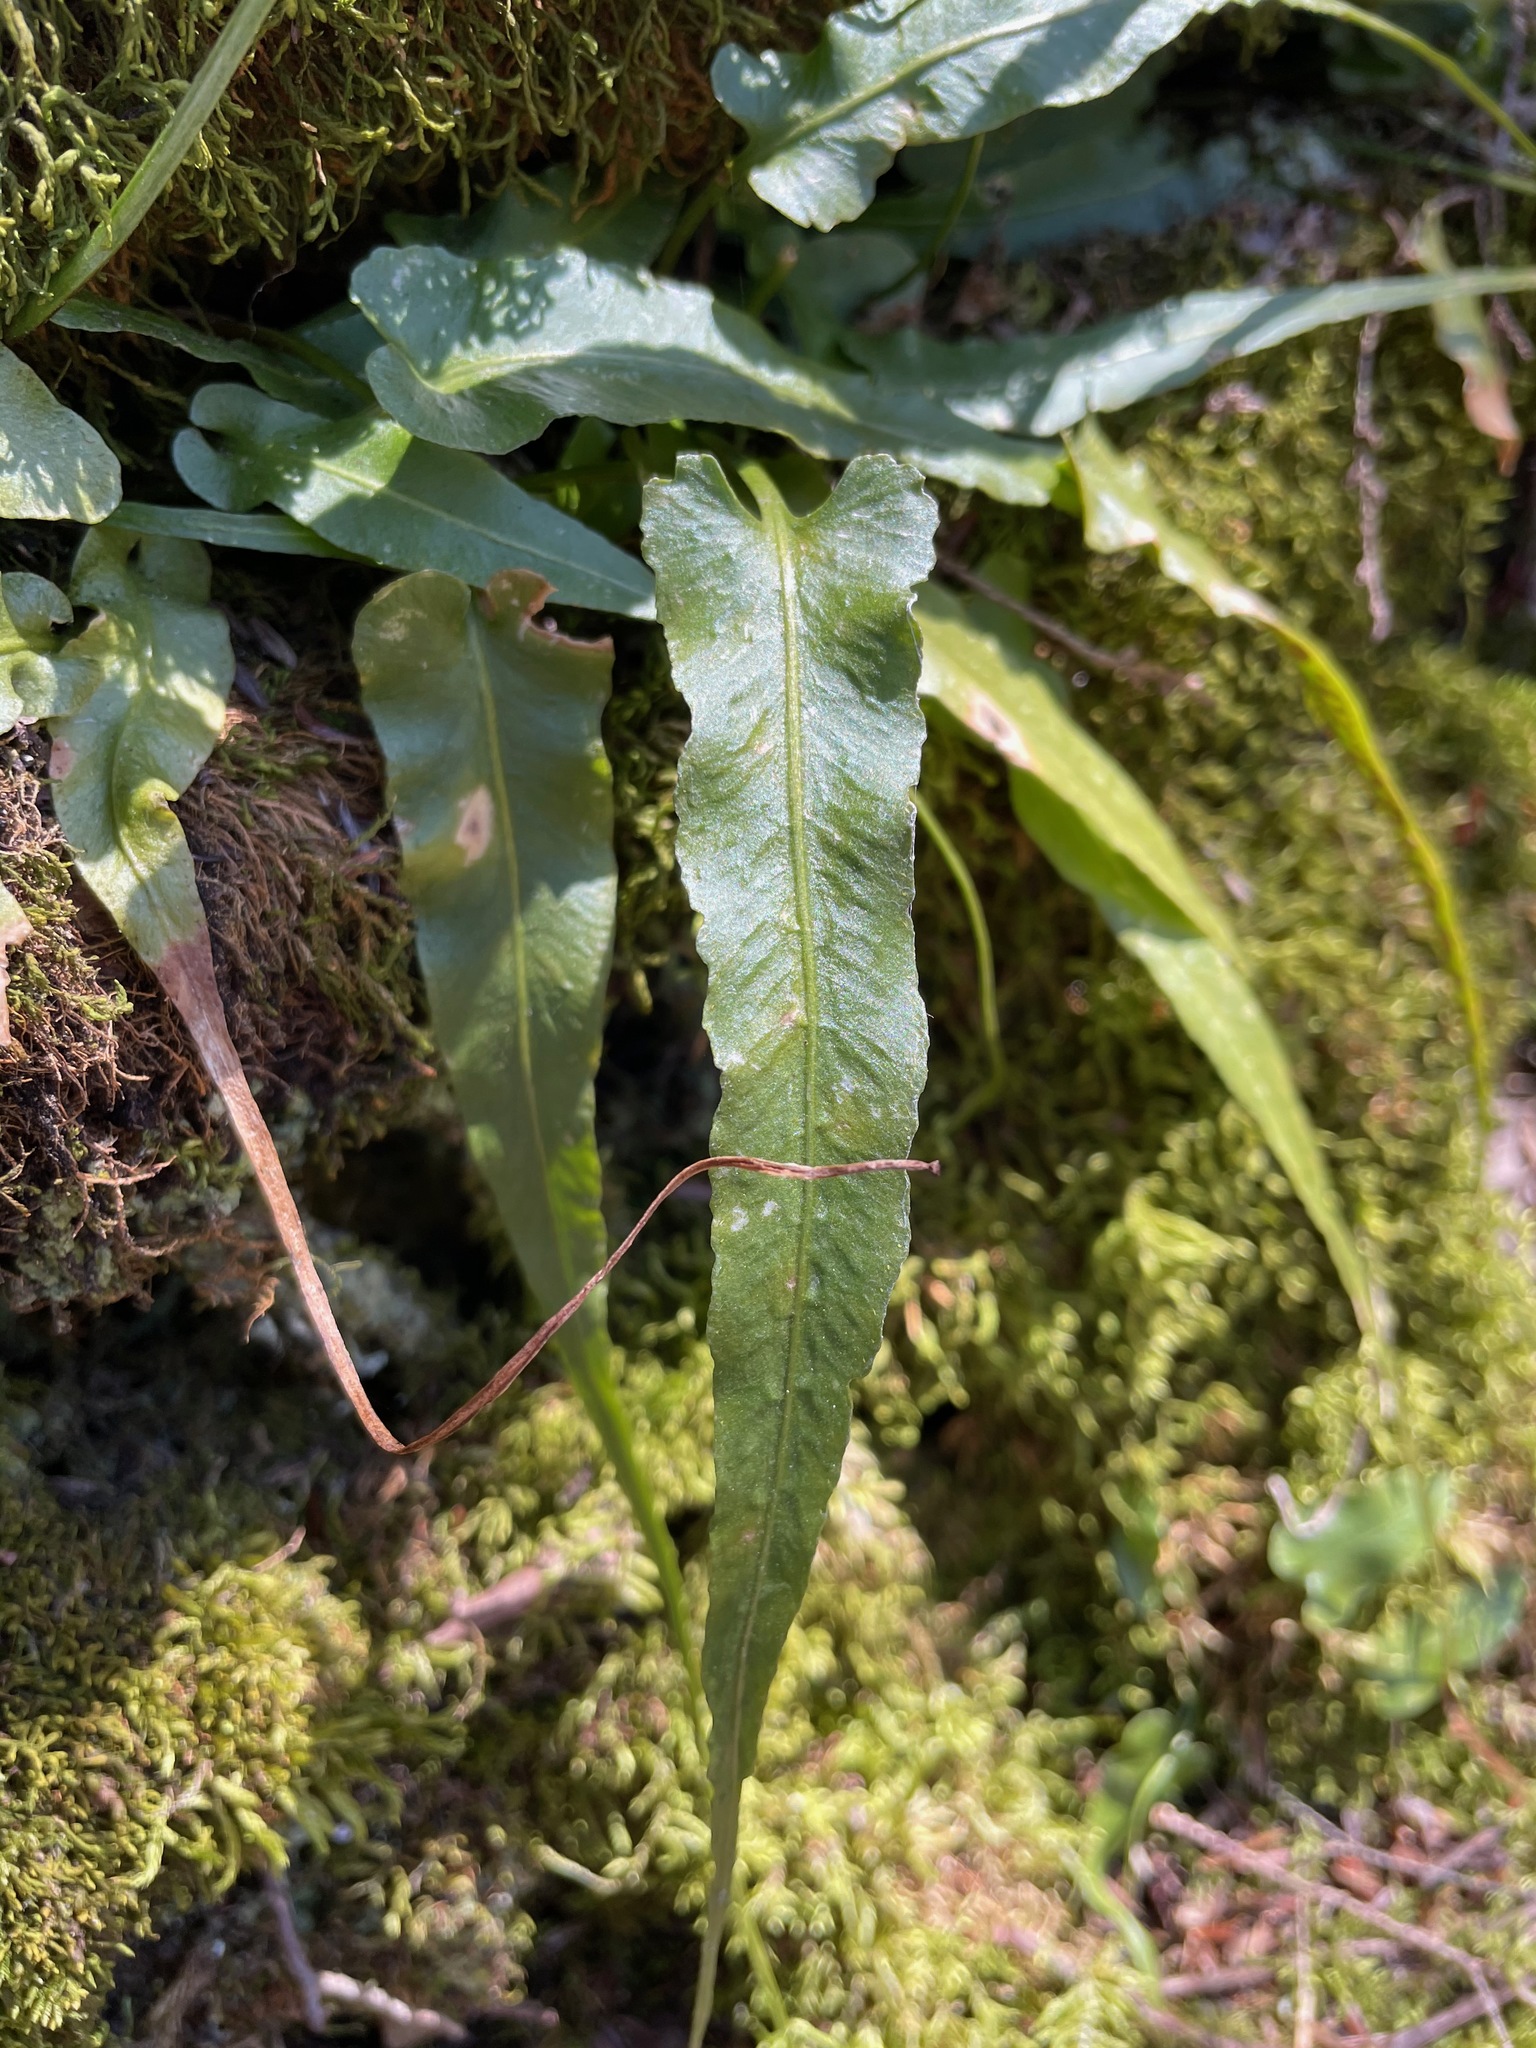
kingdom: Plantae
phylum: Tracheophyta
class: Polypodiopsida
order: Polypodiales
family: Aspleniaceae
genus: Asplenium
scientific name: Asplenium rhizophyllum
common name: Walking fern
